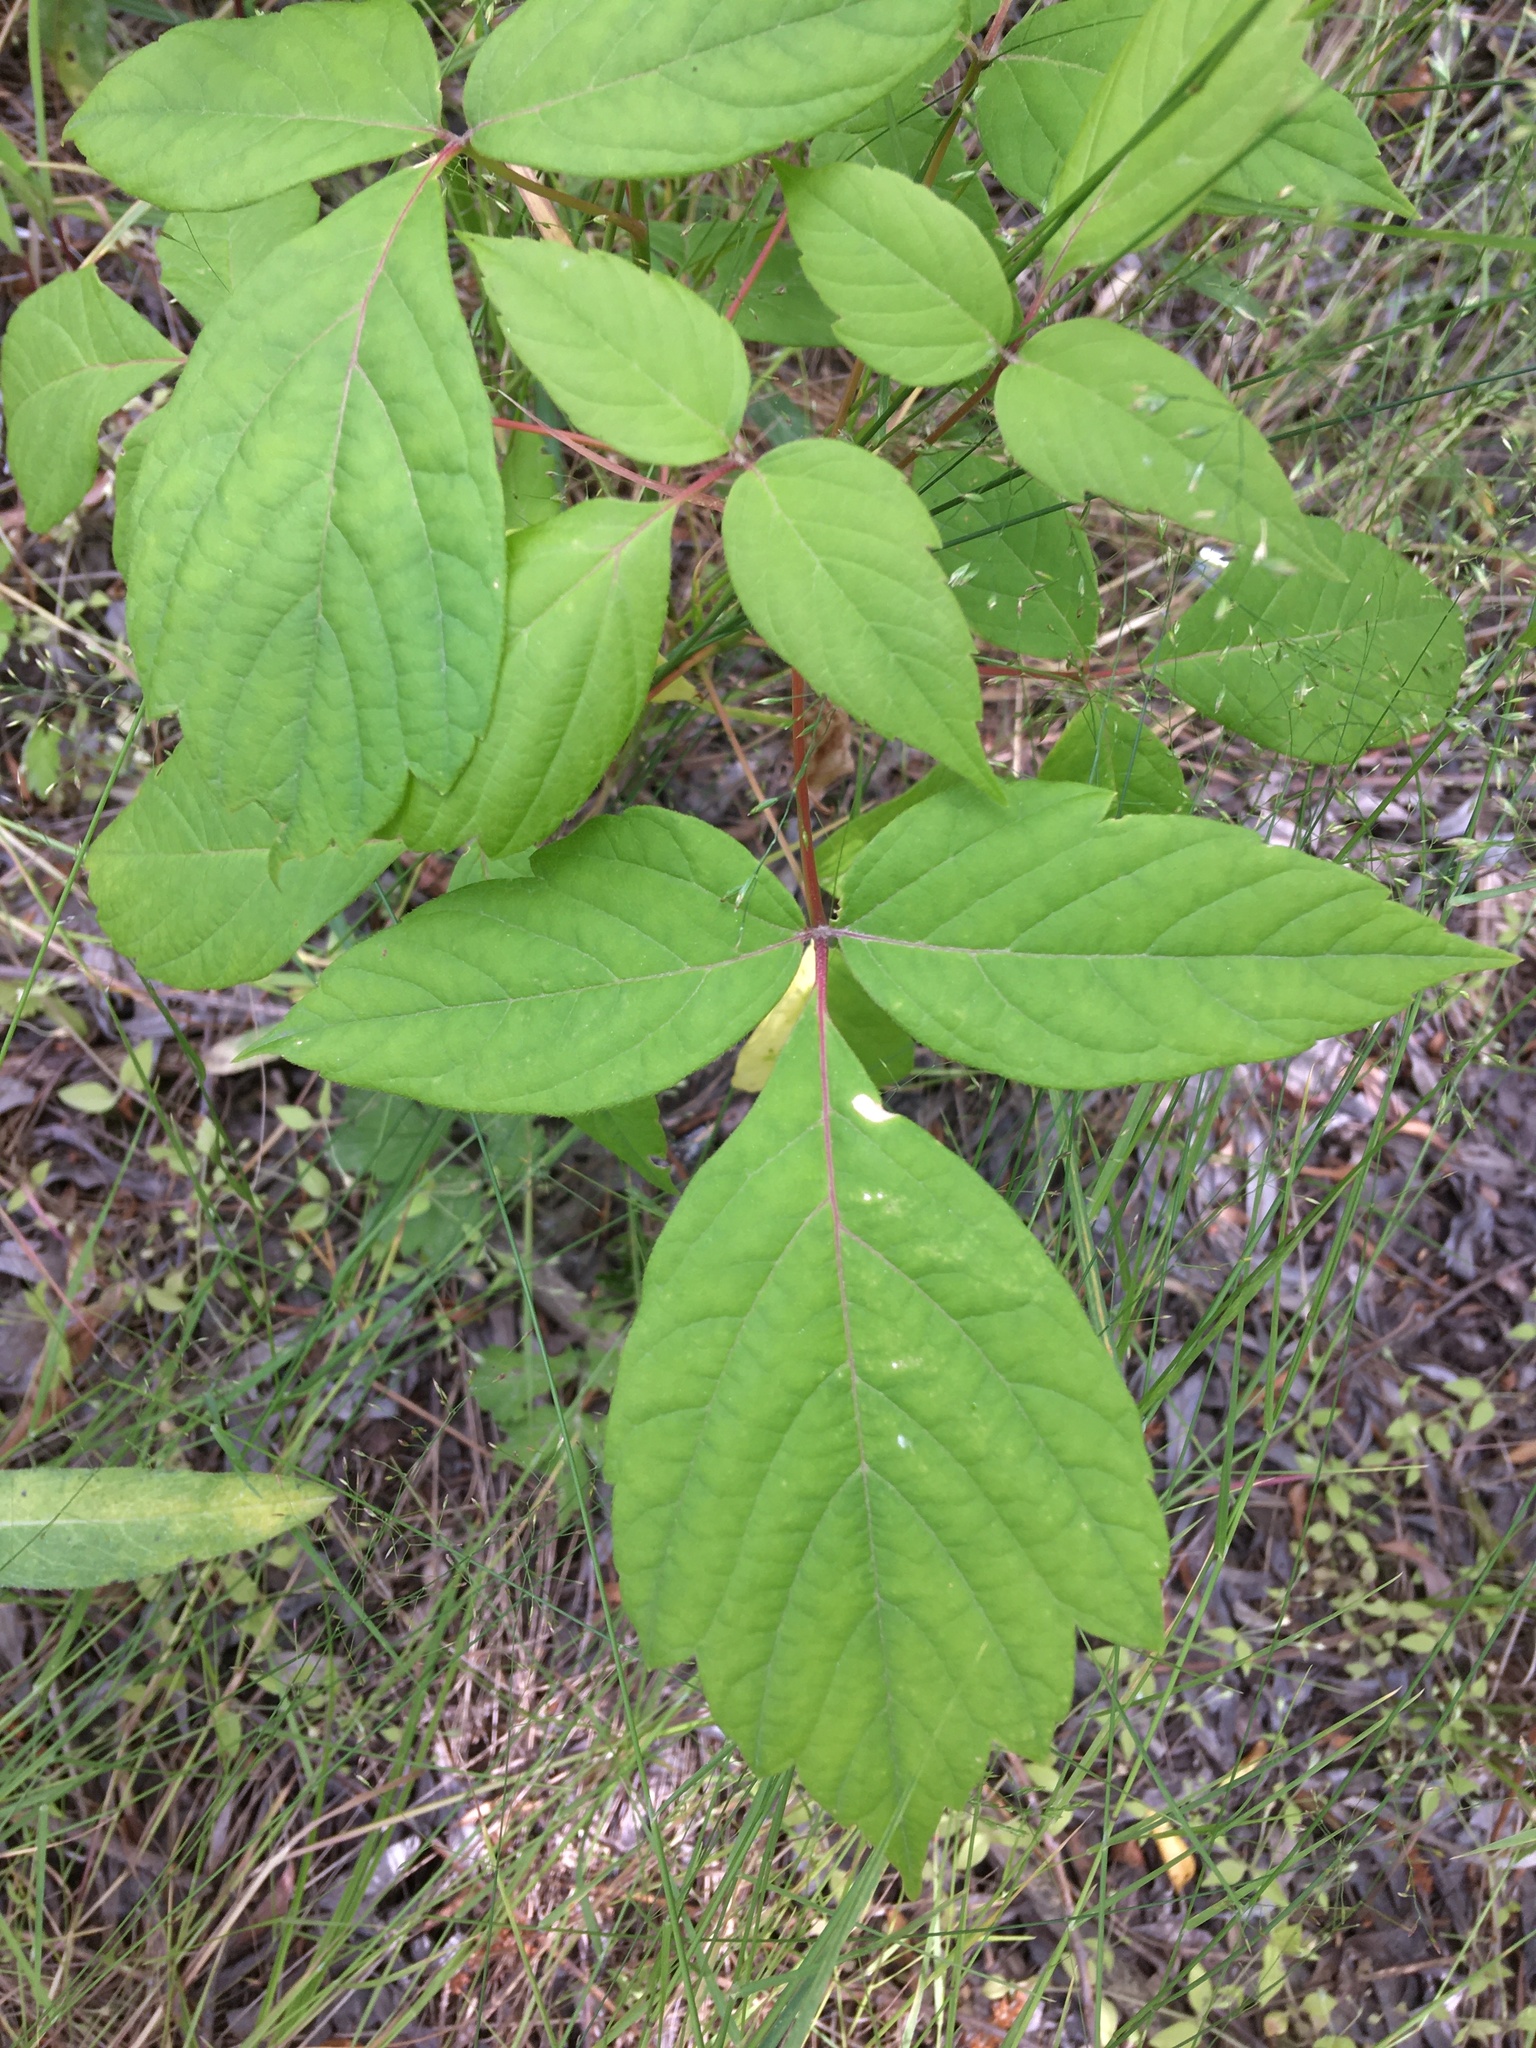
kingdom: Plantae
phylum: Tracheophyta
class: Magnoliopsida
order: Sapindales
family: Sapindaceae
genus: Acer
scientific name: Acer negundo
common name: Ashleaf maple
